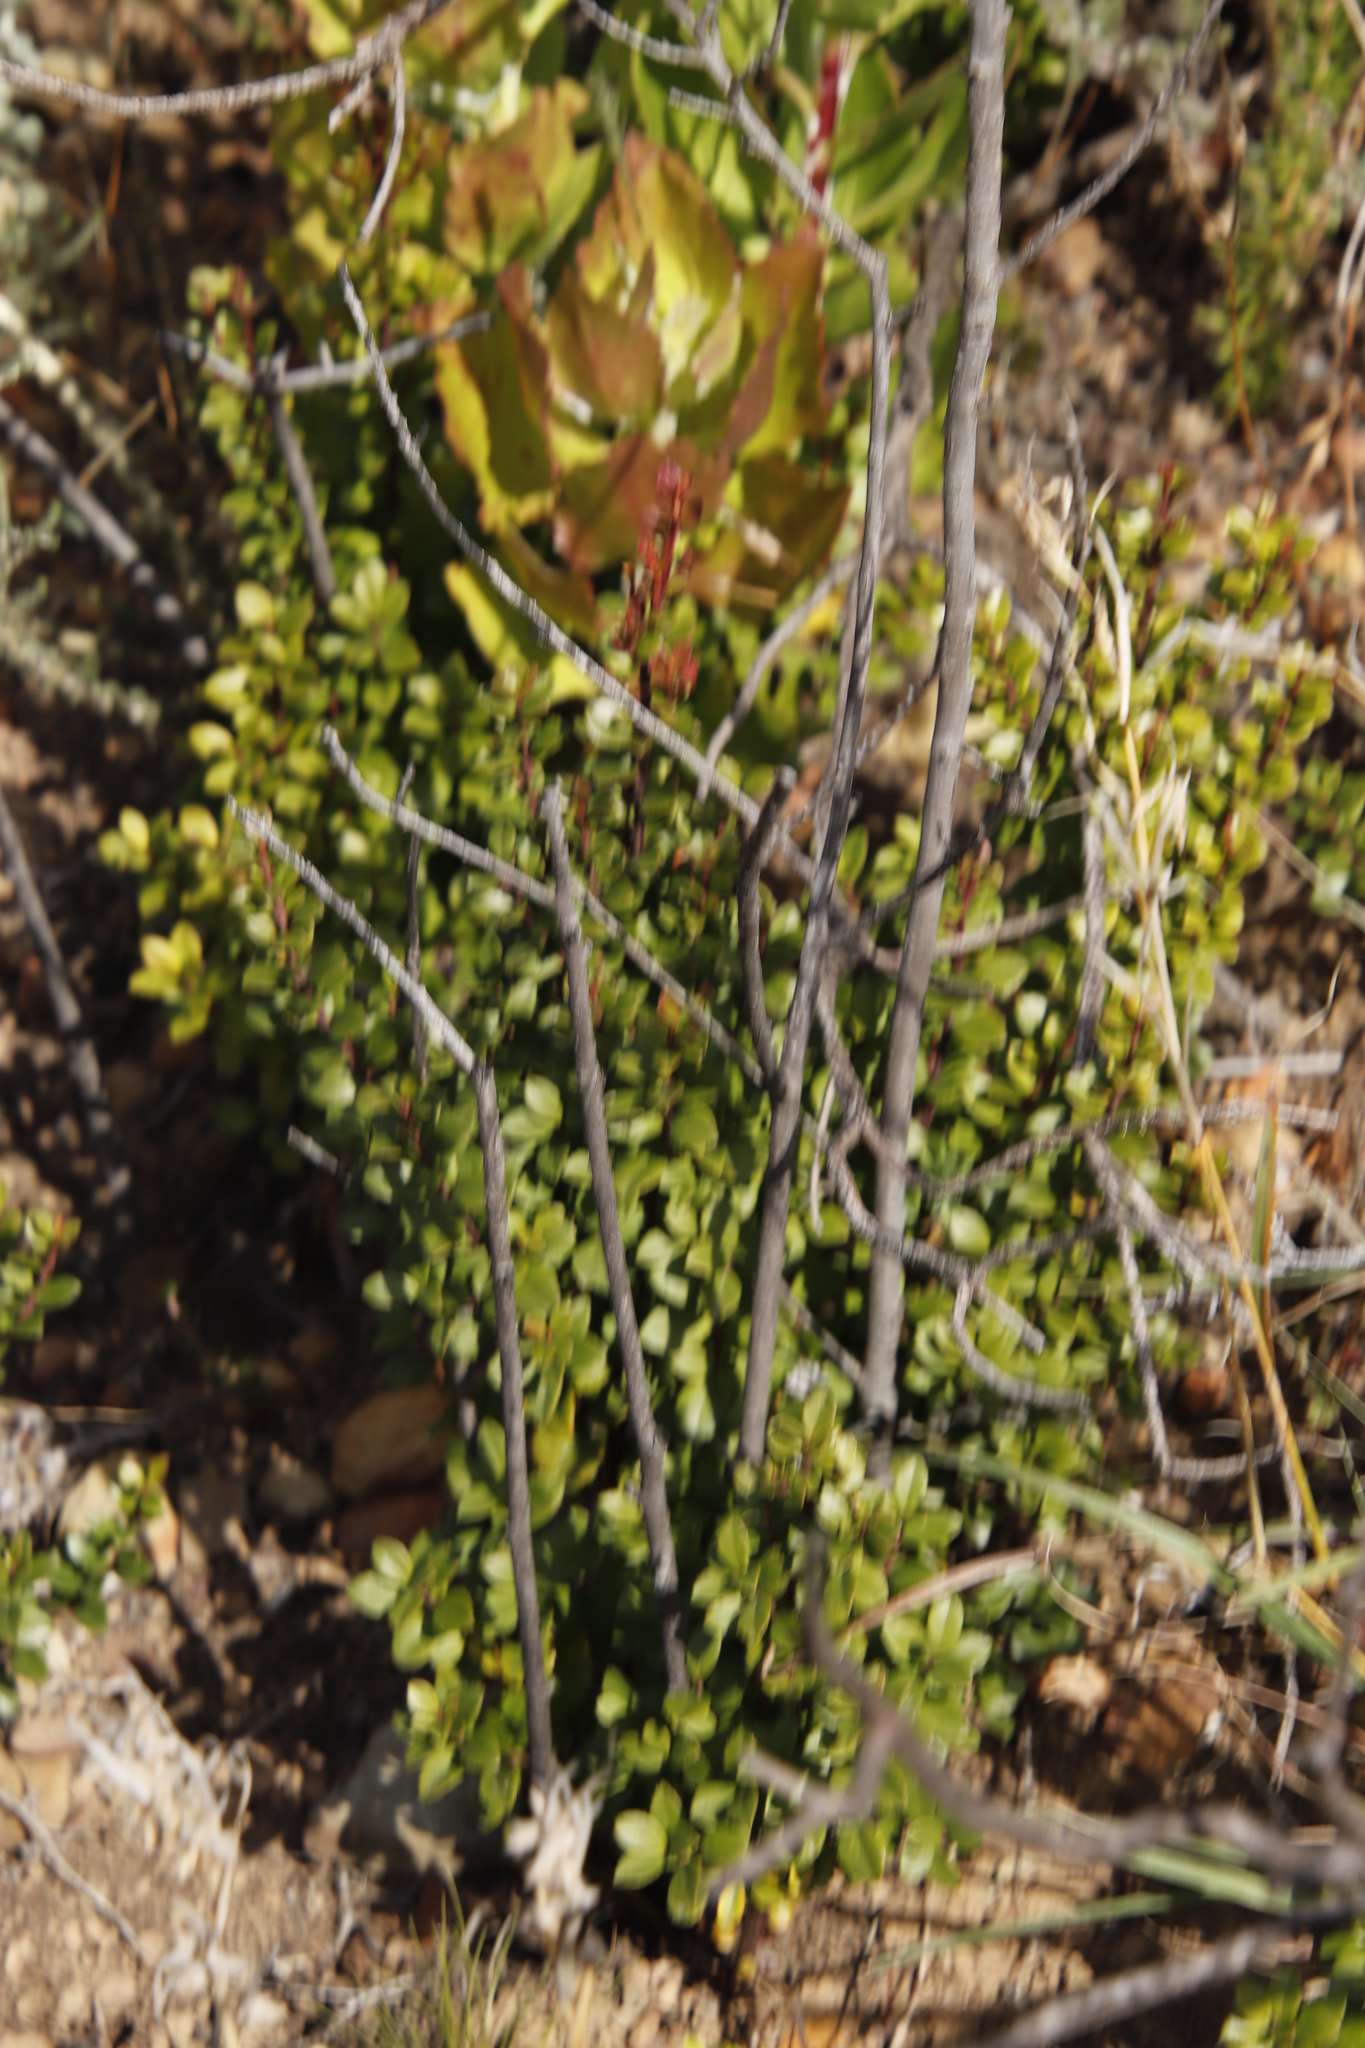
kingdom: Plantae
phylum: Tracheophyta
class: Magnoliopsida
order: Ericales
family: Primulaceae
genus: Myrsine
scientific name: Myrsine africana
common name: African-boxwood
